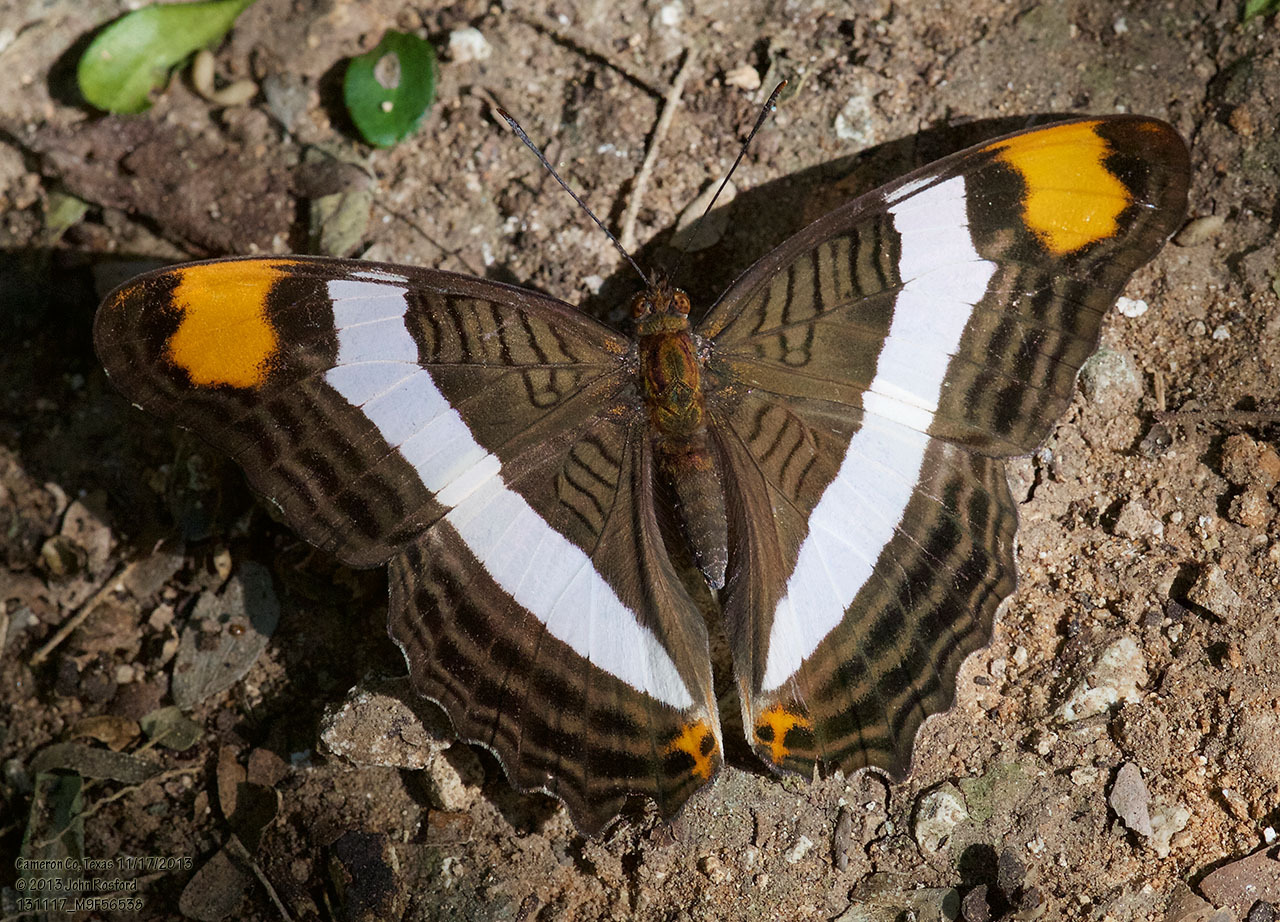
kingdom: Animalia
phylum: Arthropoda
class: Insecta
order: Lepidoptera
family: Nymphalidae
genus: Limenitis
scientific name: Limenitis fessonia
